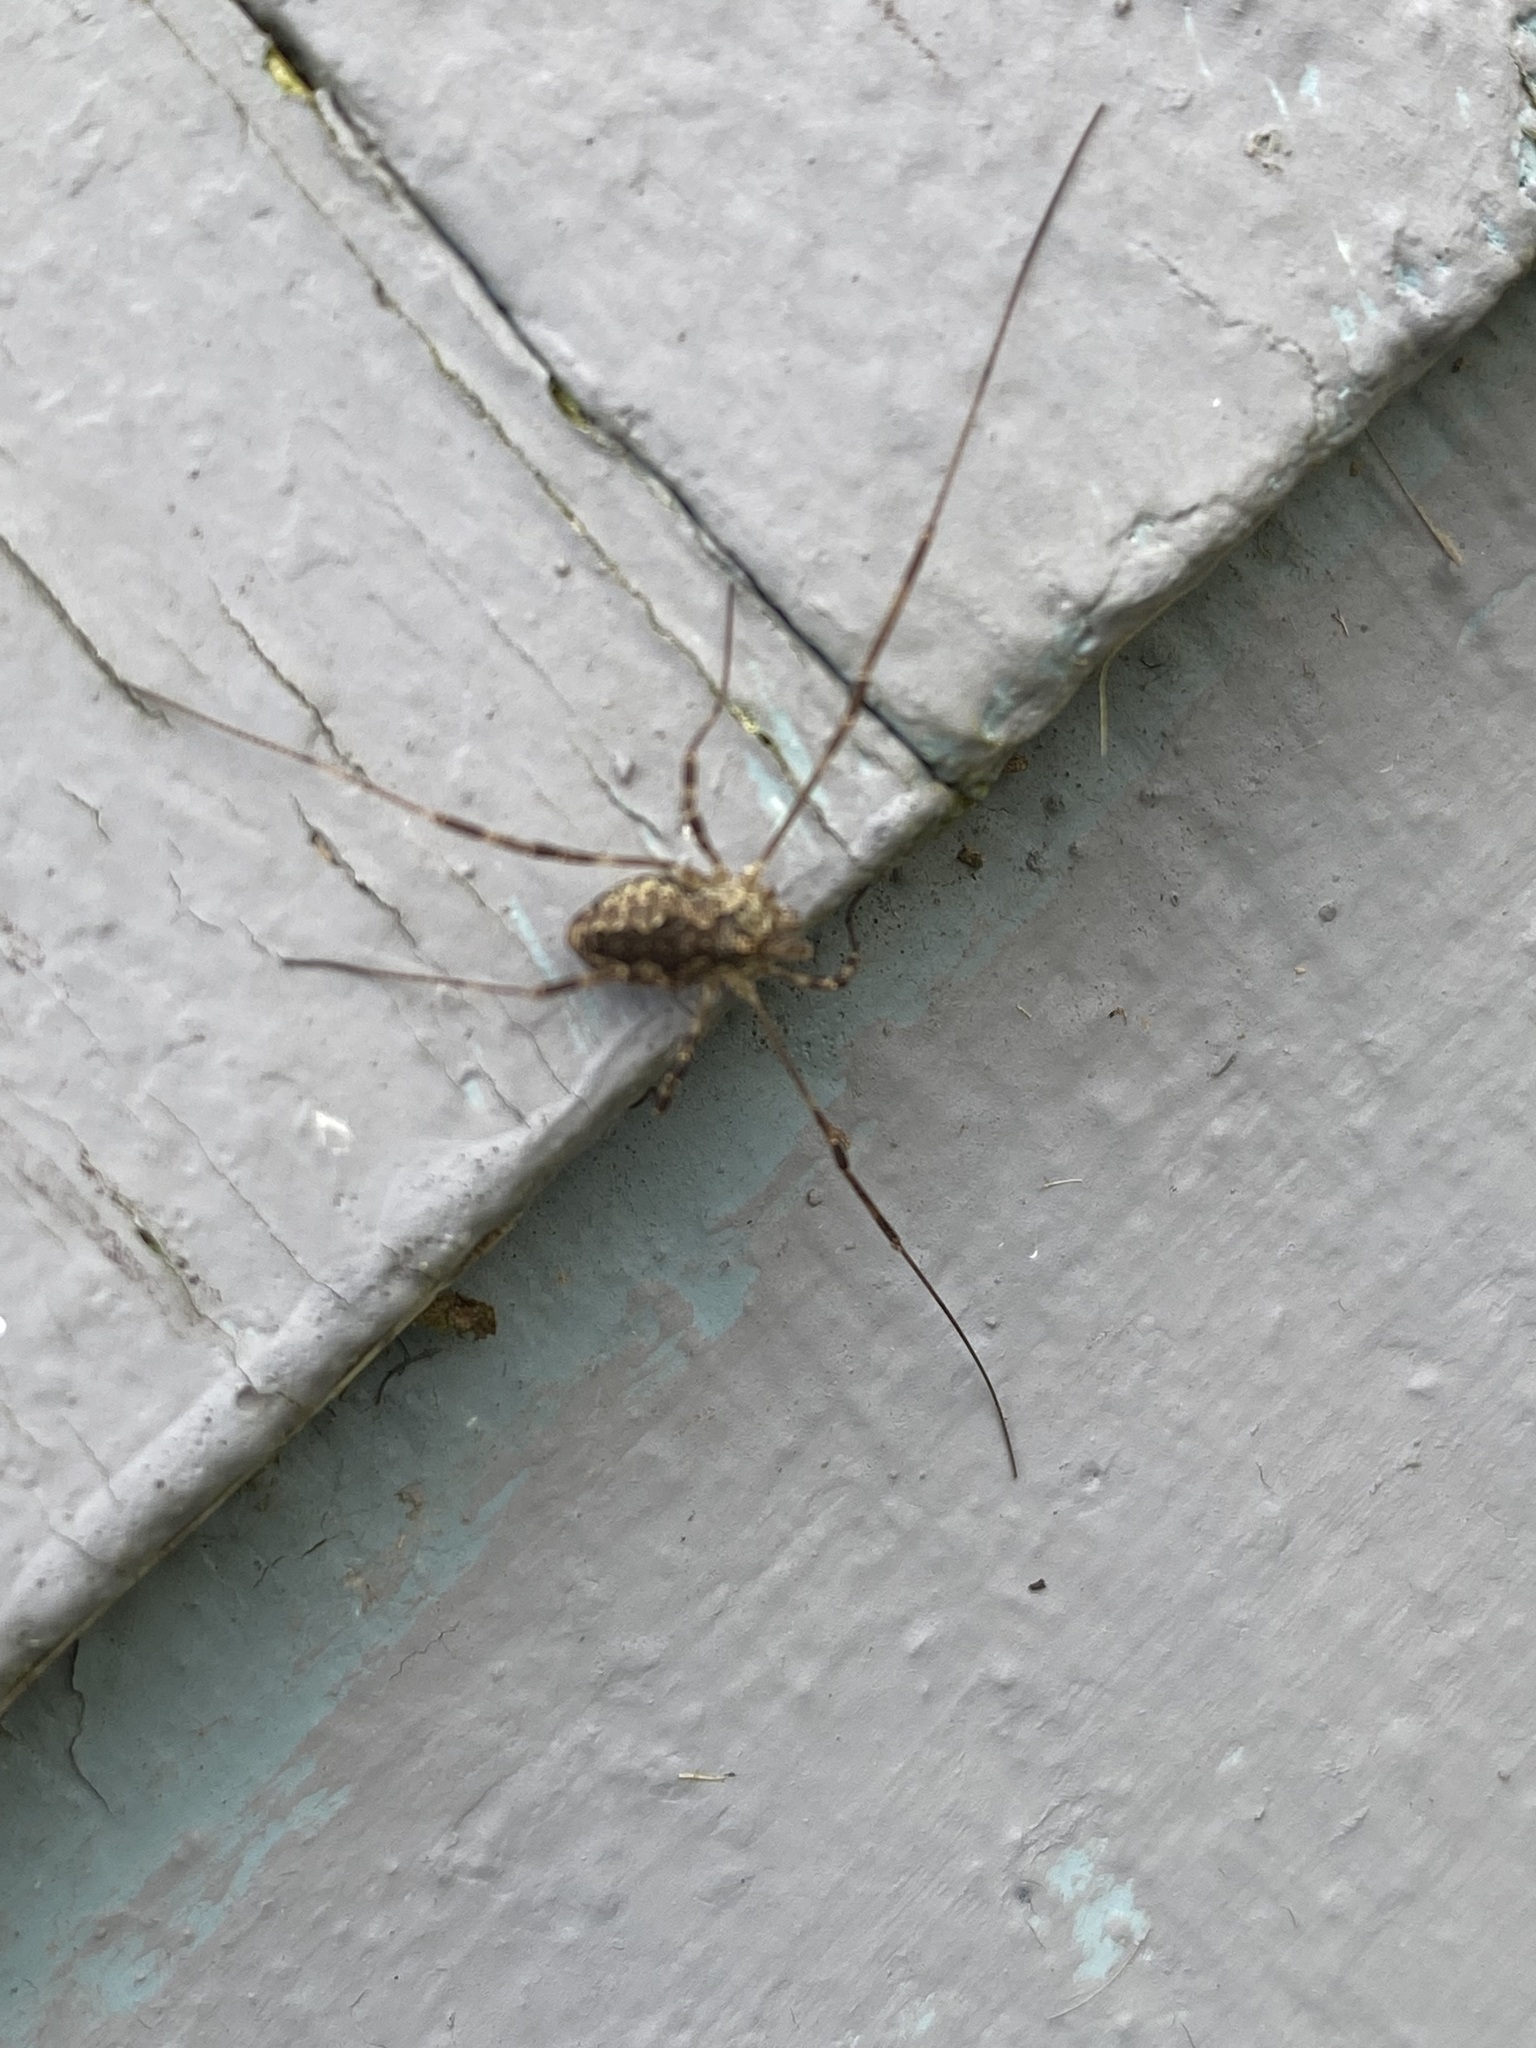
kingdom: Animalia
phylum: Arthropoda
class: Arachnida
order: Opiliones
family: Phalangiidae
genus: Odiellus
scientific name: Odiellus pictus
